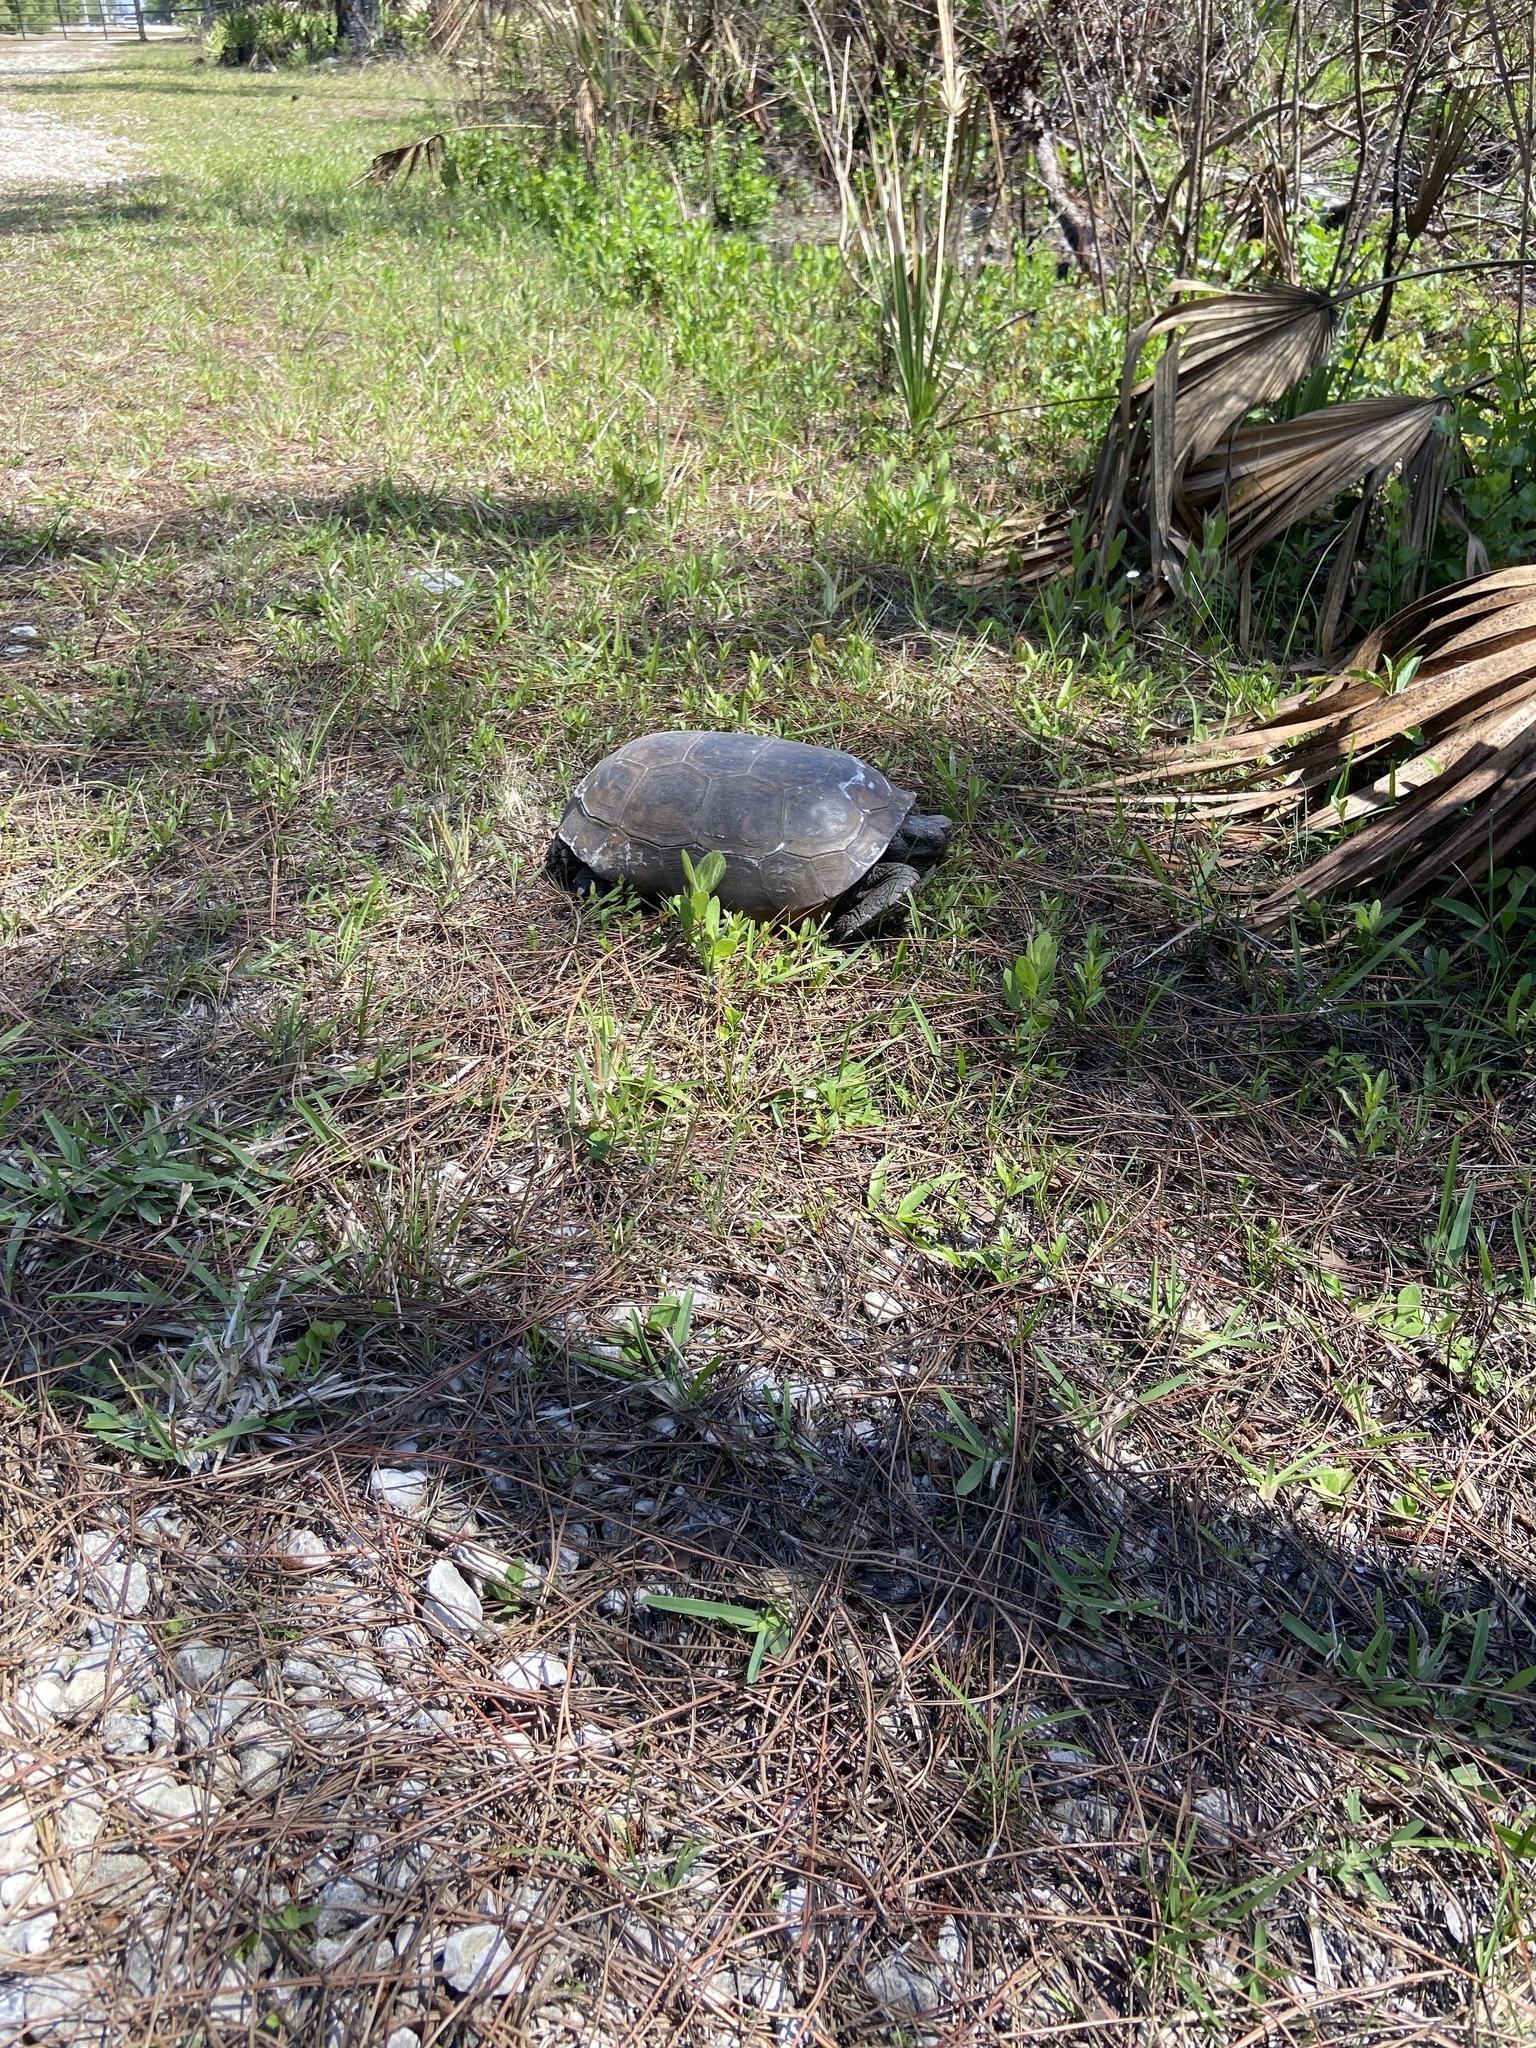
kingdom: Animalia
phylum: Chordata
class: Testudines
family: Testudinidae
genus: Gopherus
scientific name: Gopherus polyphemus
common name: Florida gopher tortoise
